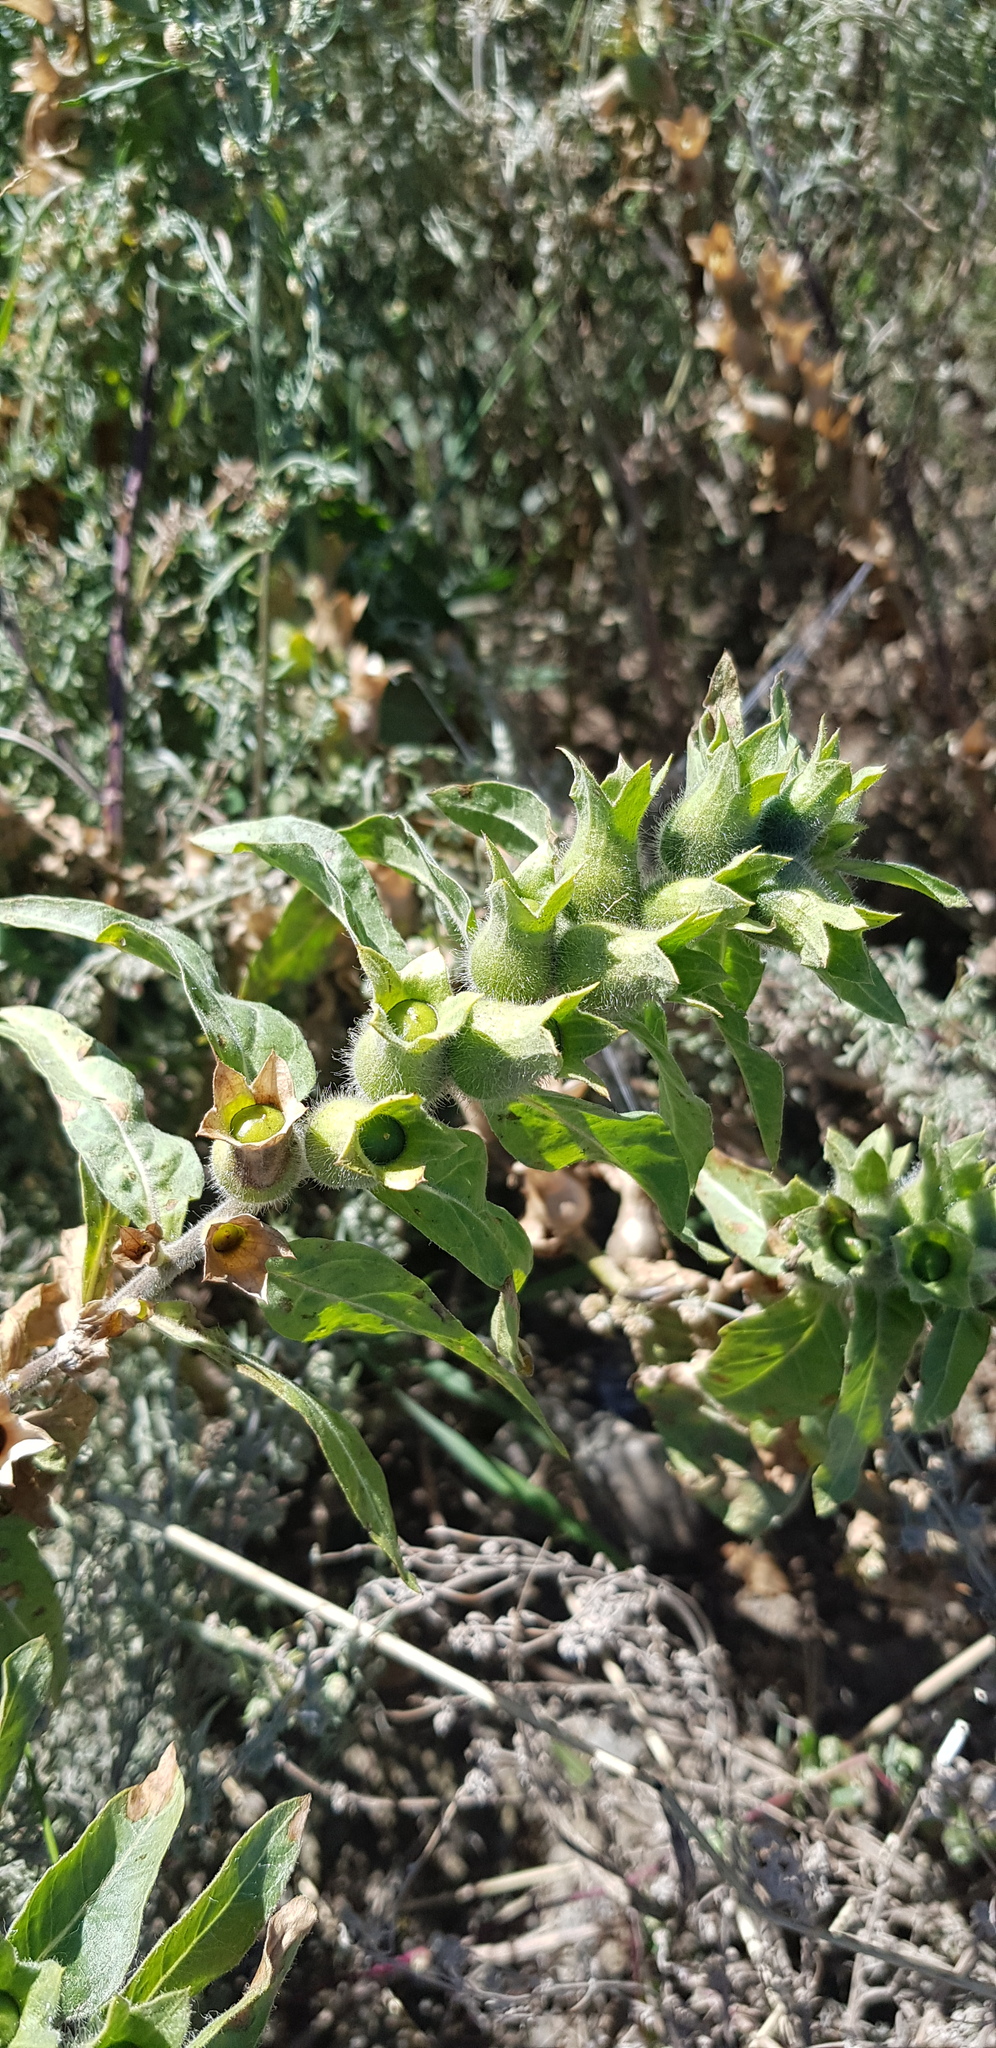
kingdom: Plantae
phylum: Tracheophyta
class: Magnoliopsida
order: Solanales
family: Solanaceae
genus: Hyoscyamus
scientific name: Hyoscyamus niger
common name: Henbane
